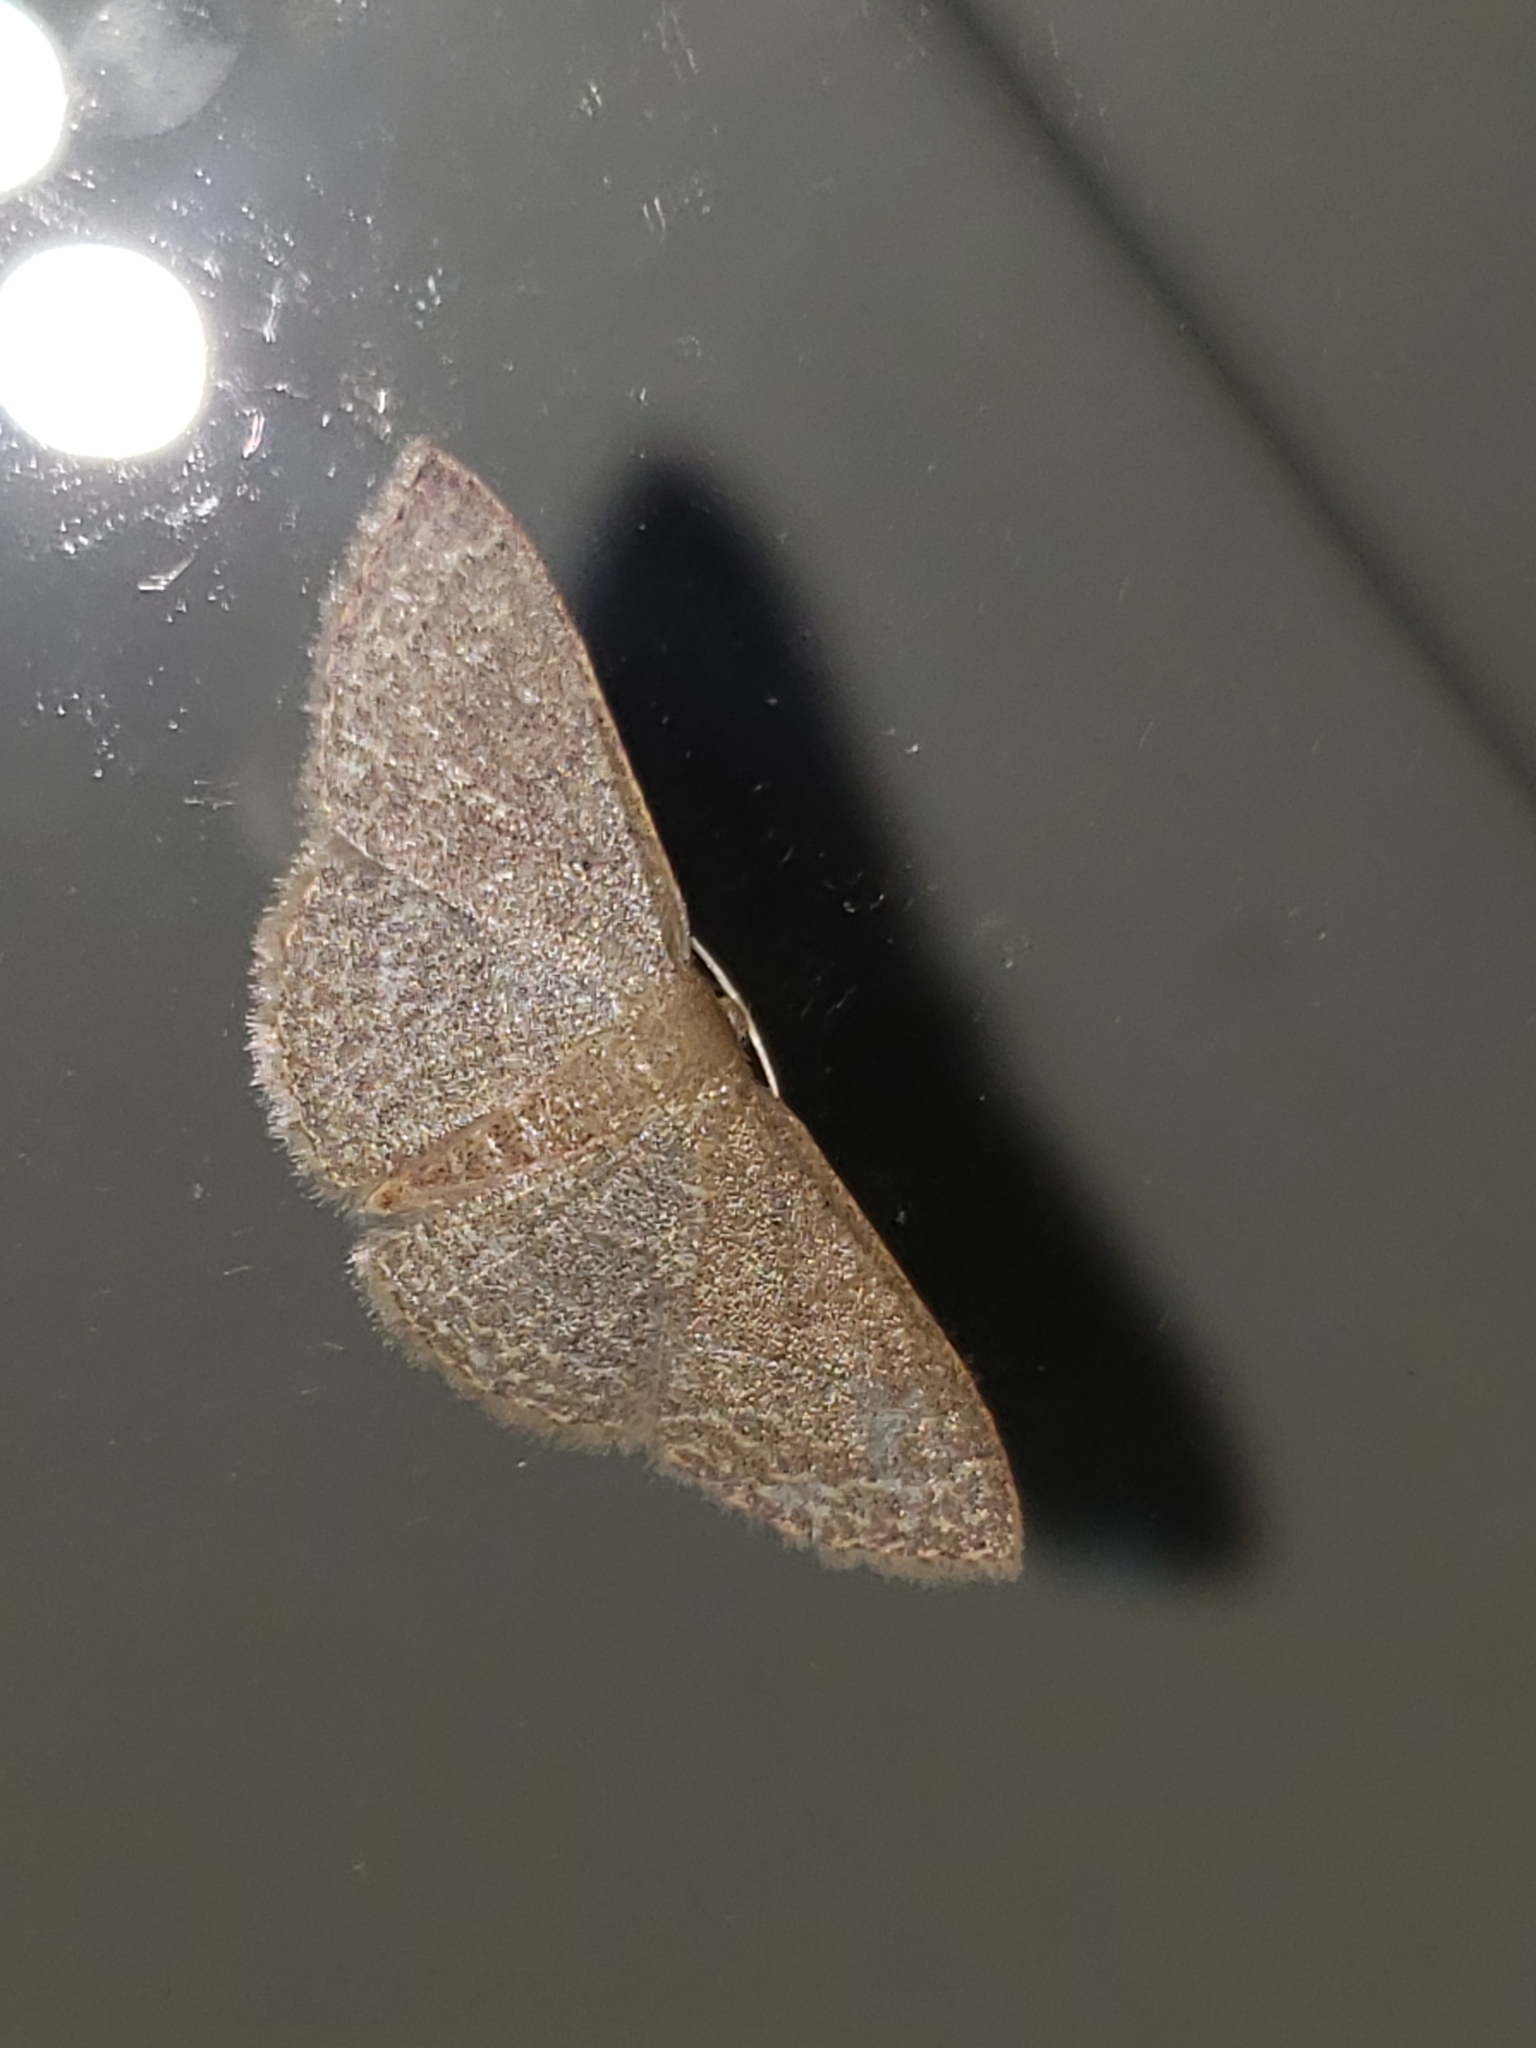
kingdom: Animalia
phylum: Arthropoda
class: Insecta
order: Lepidoptera
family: Geometridae
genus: Pleuroprucha
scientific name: Pleuroprucha insulsaria
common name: Common tan wave
